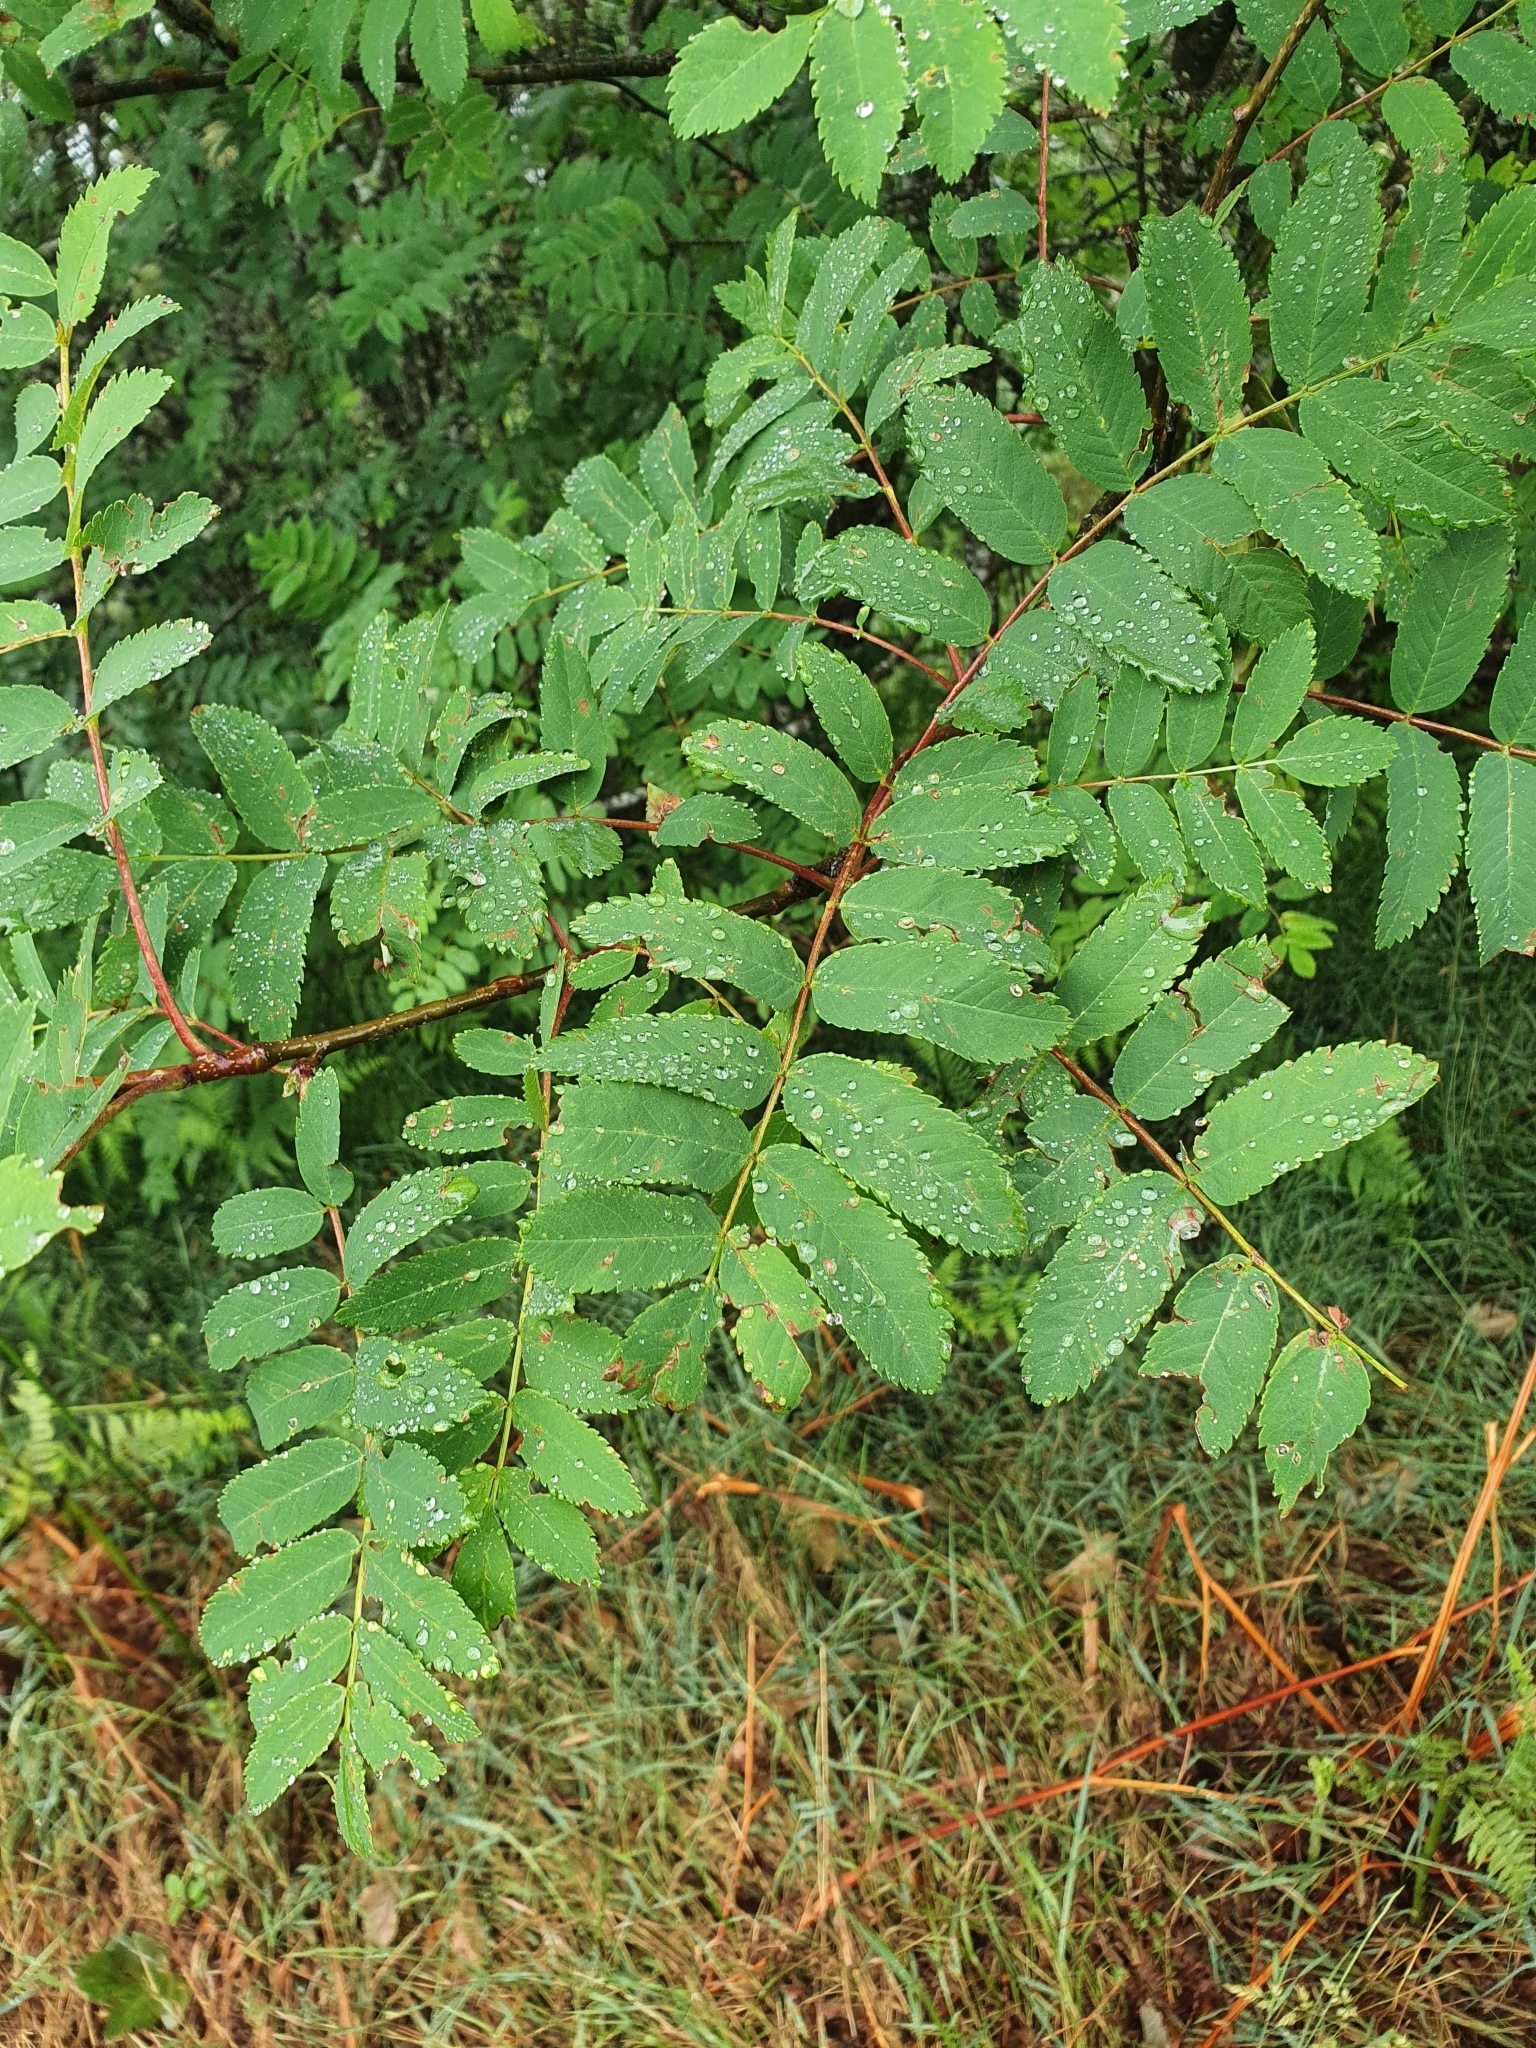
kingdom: Plantae
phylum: Tracheophyta
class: Magnoliopsida
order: Rosales
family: Rosaceae
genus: Sorbus
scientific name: Sorbus aucuparia
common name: Rowan
